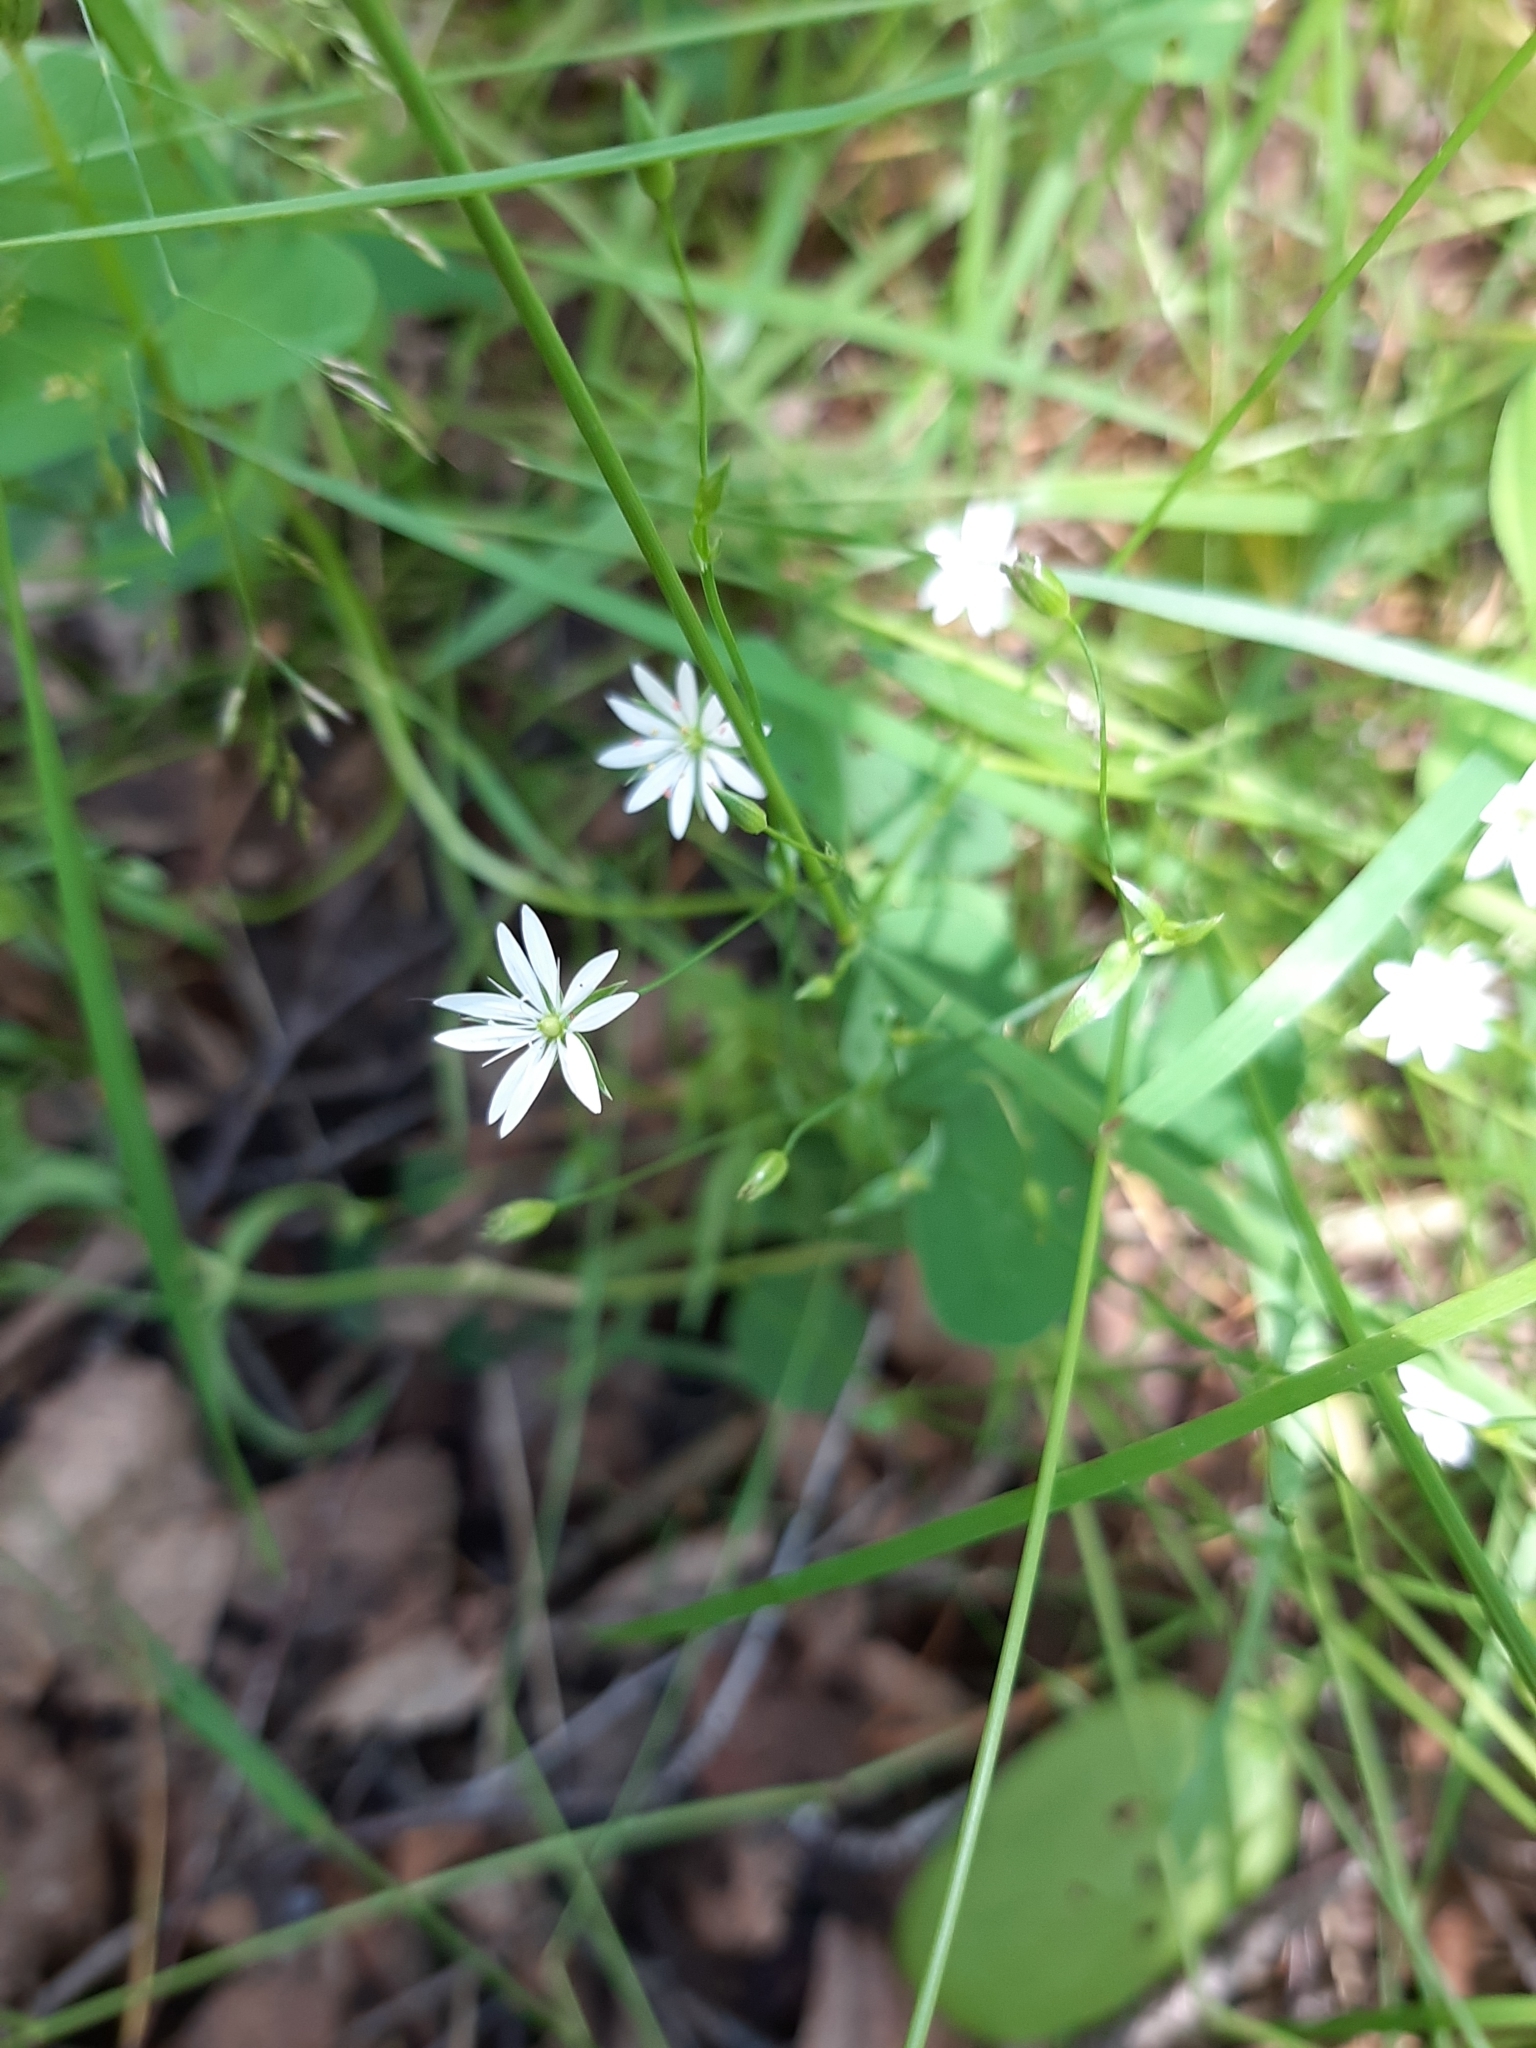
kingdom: Plantae
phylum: Tracheophyta
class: Magnoliopsida
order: Caryophyllales
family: Caryophyllaceae
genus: Stellaria
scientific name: Stellaria graminea
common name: Grass-like starwort
